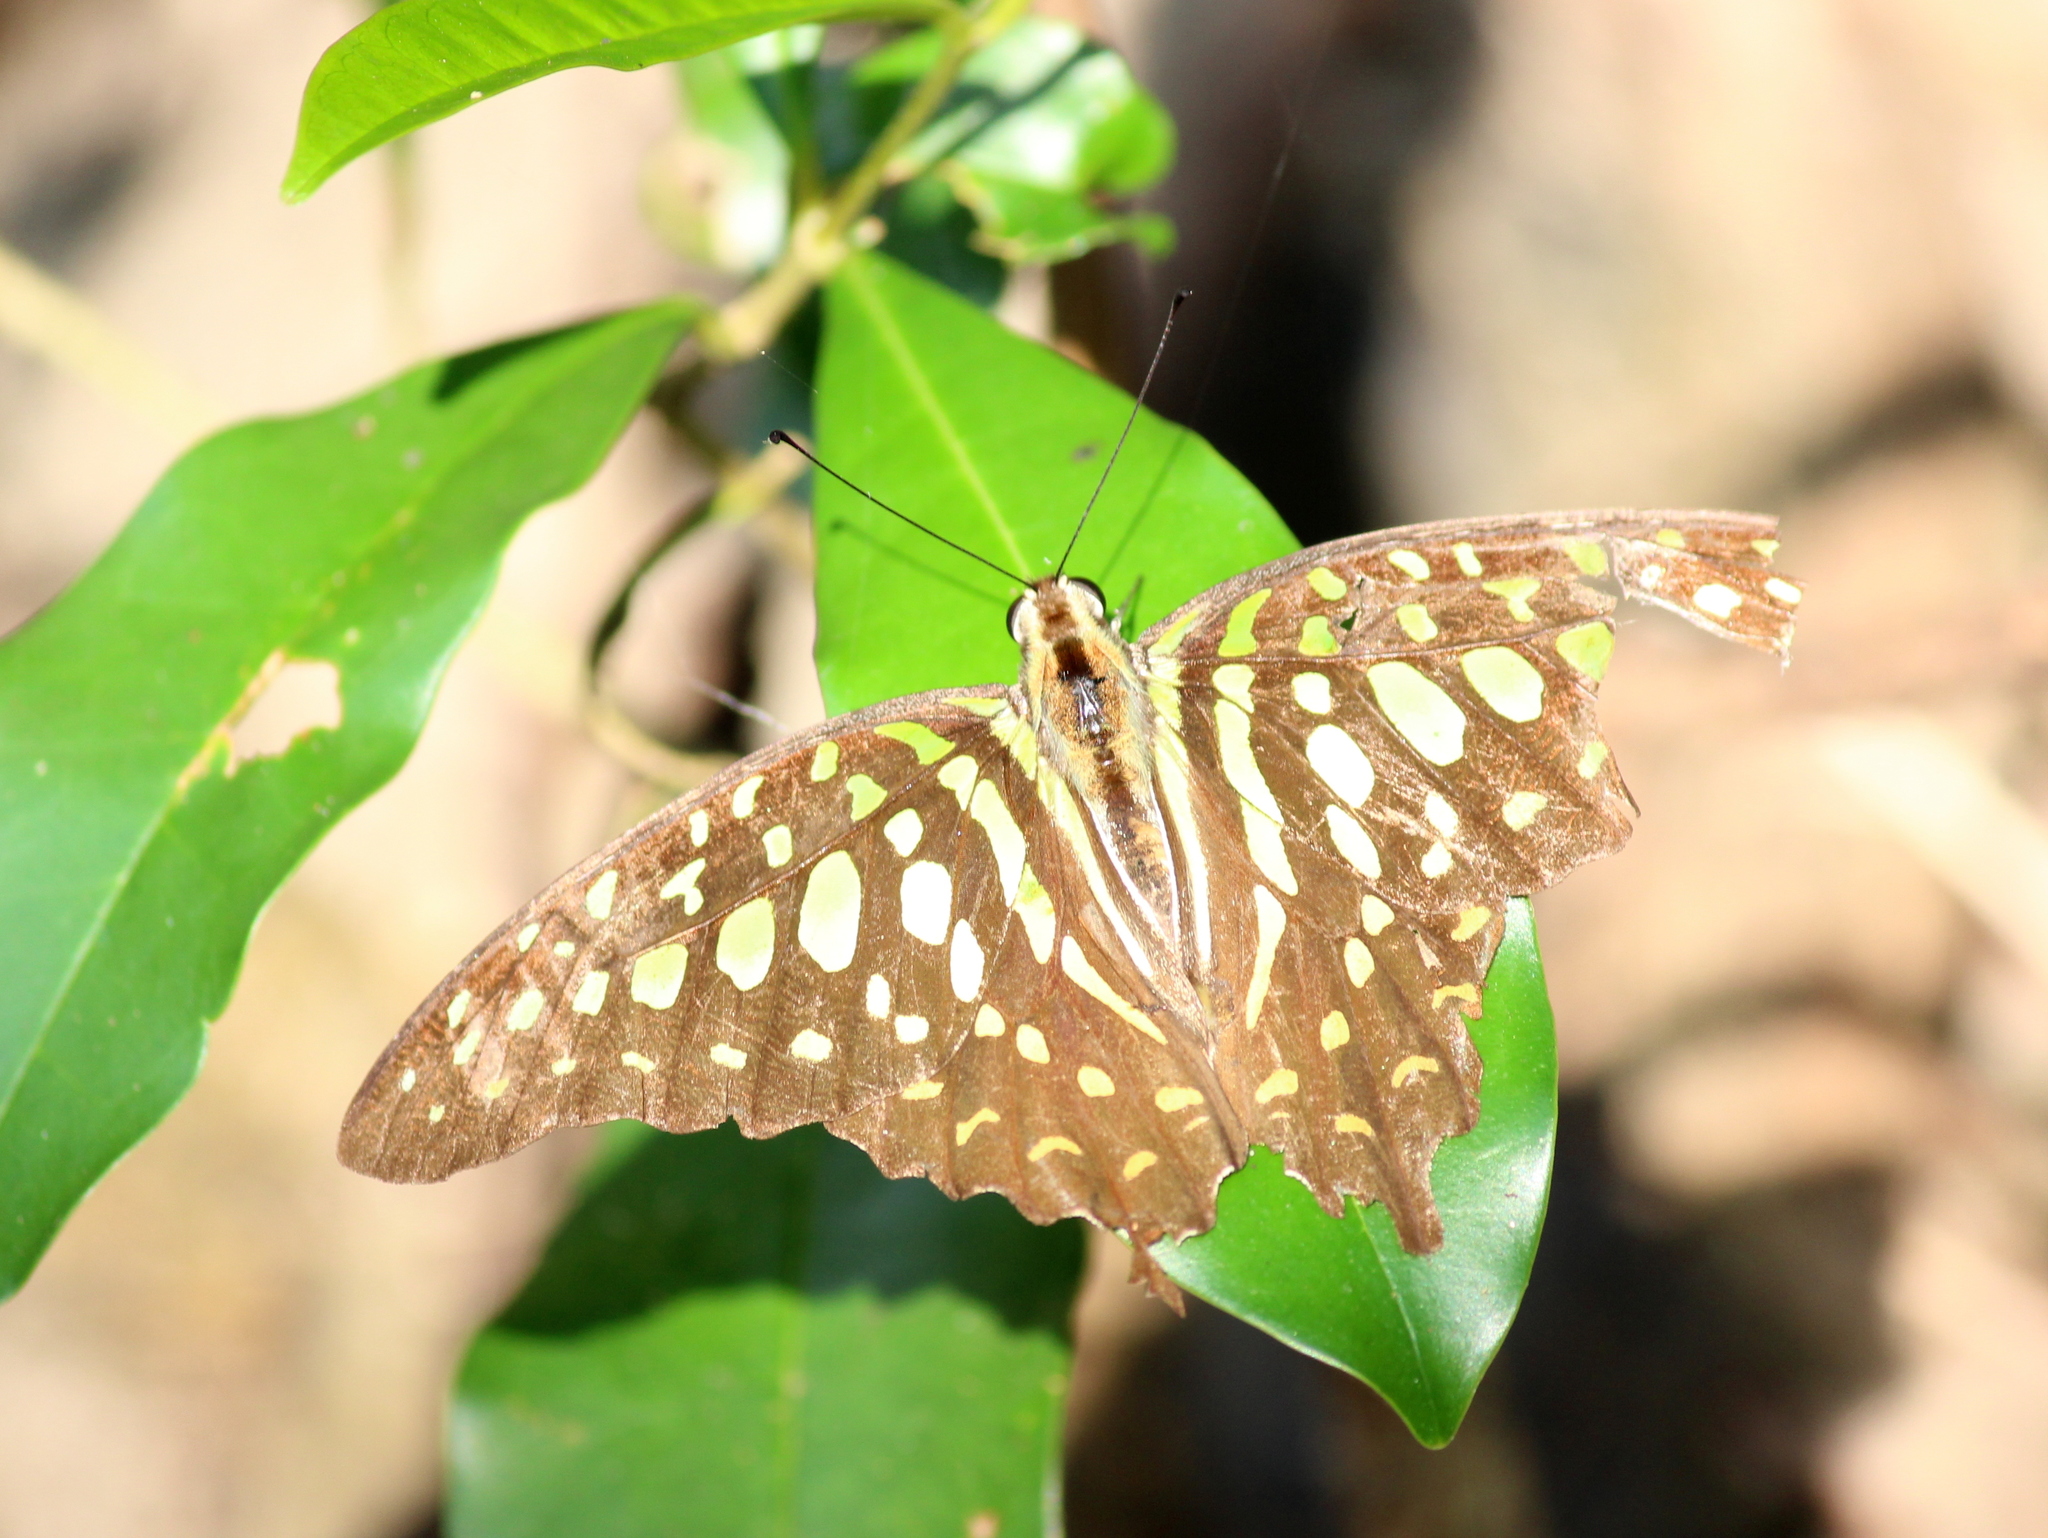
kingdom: Animalia
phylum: Arthropoda
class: Insecta
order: Lepidoptera
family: Papilionidae
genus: Graphium
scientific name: Graphium agamemnon
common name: Tailed jay
